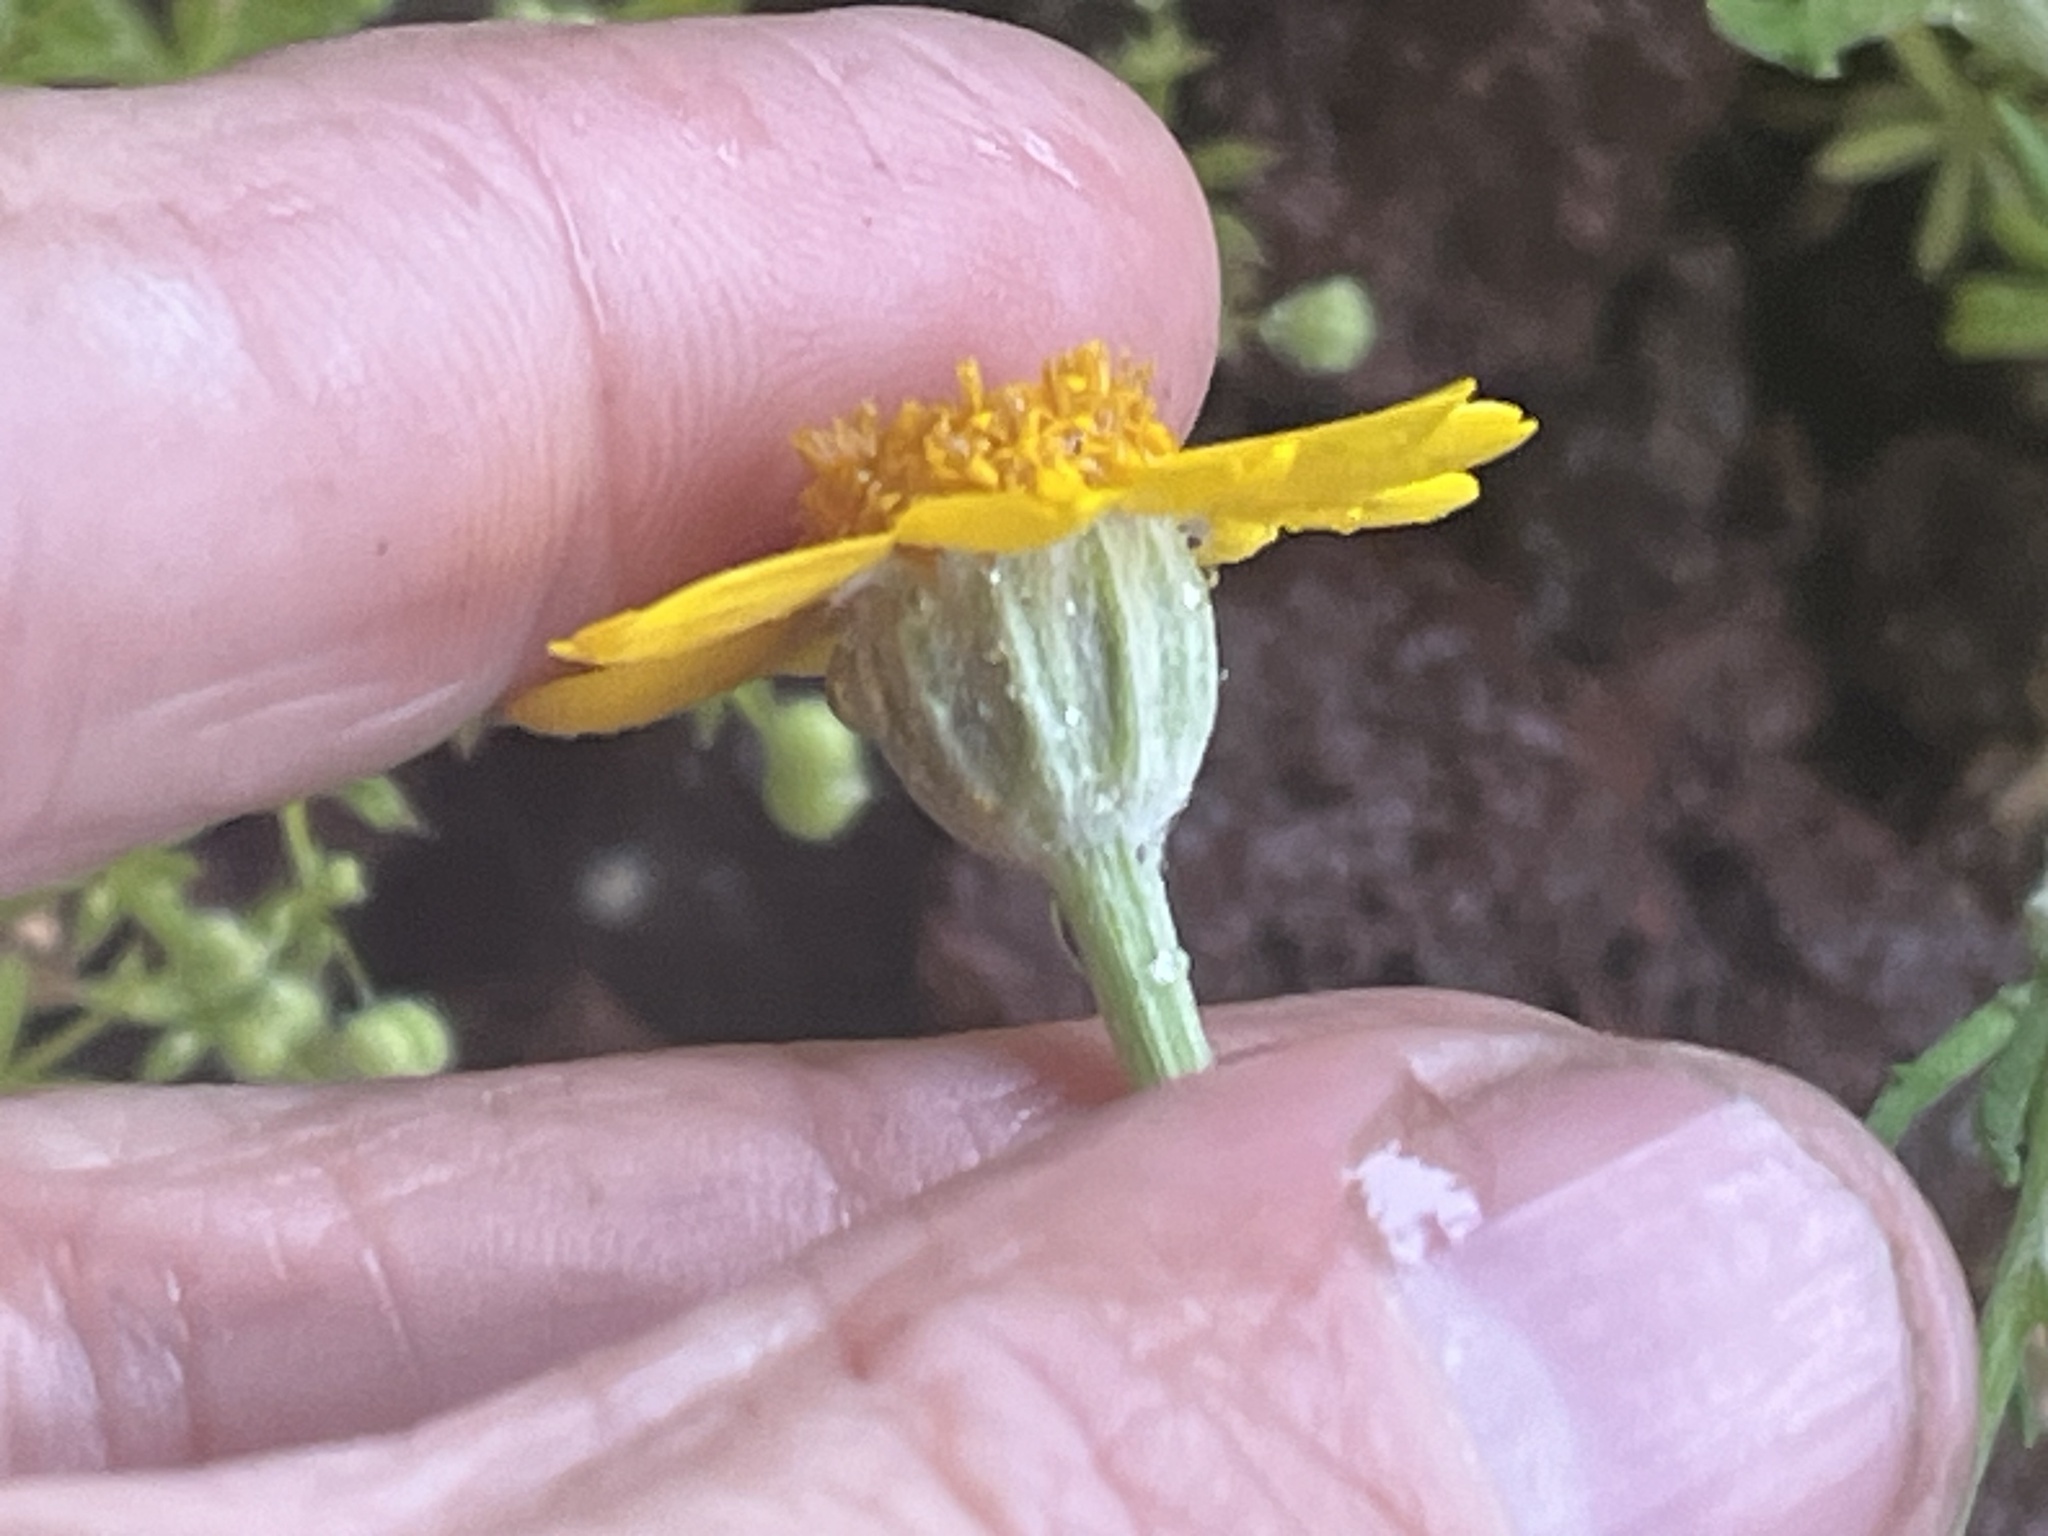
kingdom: Plantae
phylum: Tracheophyta
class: Magnoliopsida
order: Asterales
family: Asteraceae
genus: Eriophyllum
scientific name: Eriophyllum lanatum
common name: Common woolly-sunflower
